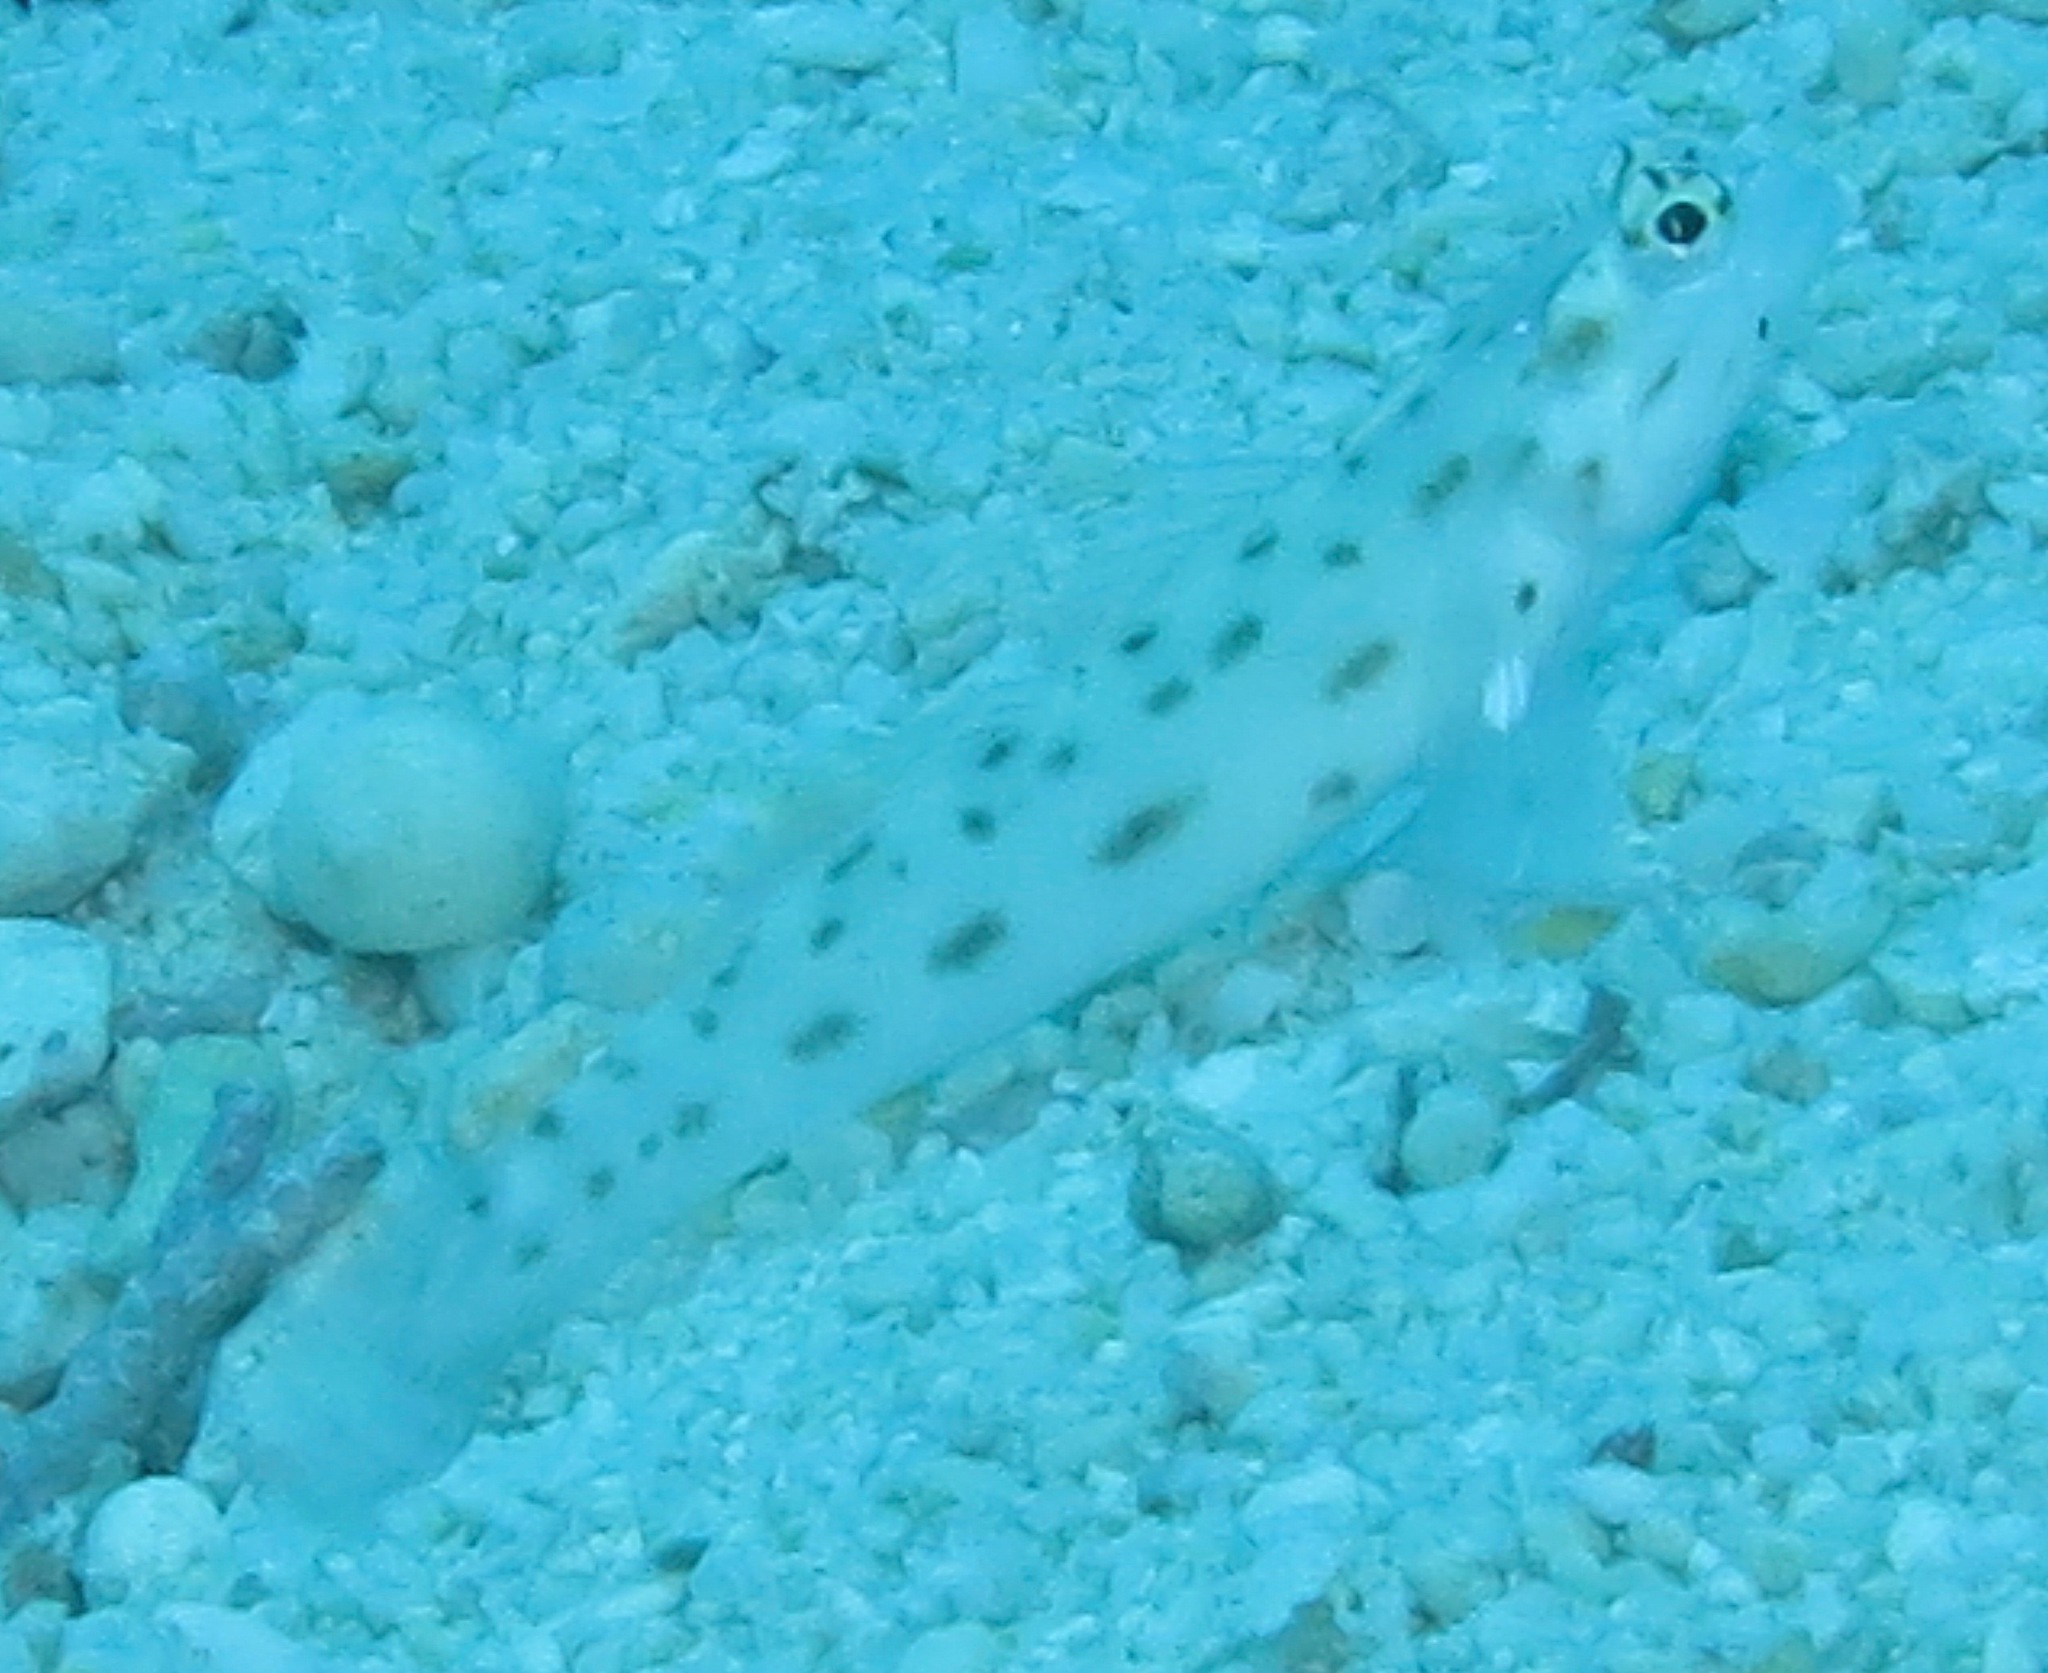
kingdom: Animalia
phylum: Chordata
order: Perciformes
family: Gobiidae
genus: Ctenogobiops
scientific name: Ctenogobiops feroculus
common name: Fierce shrimpgoby
